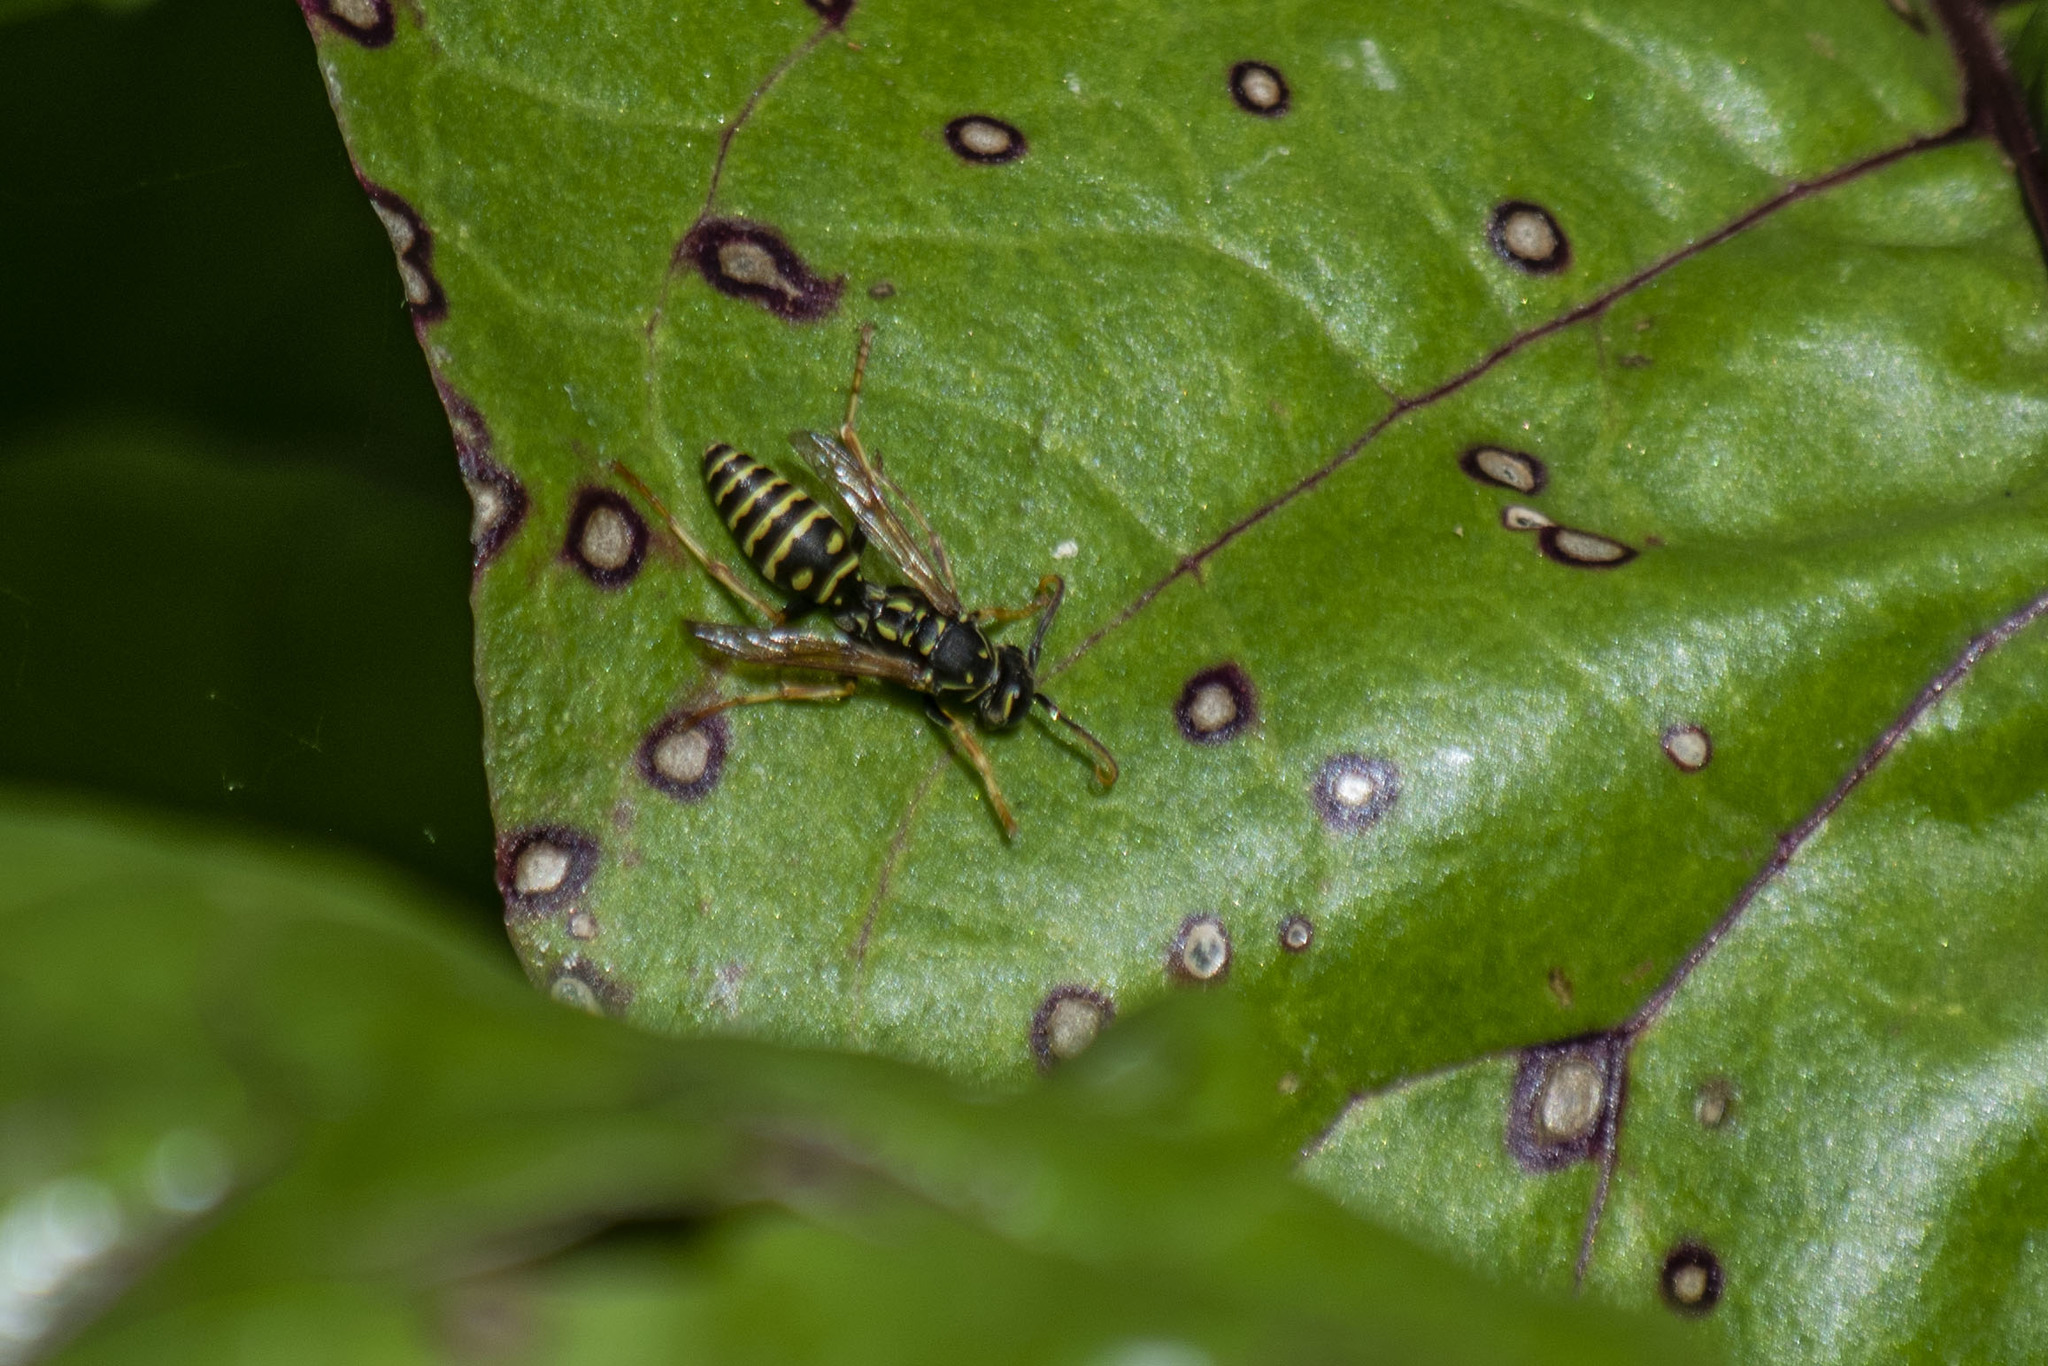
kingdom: Animalia
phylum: Arthropoda
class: Insecta
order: Hymenoptera
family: Eumenidae
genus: Polistes
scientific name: Polistes nimpha
